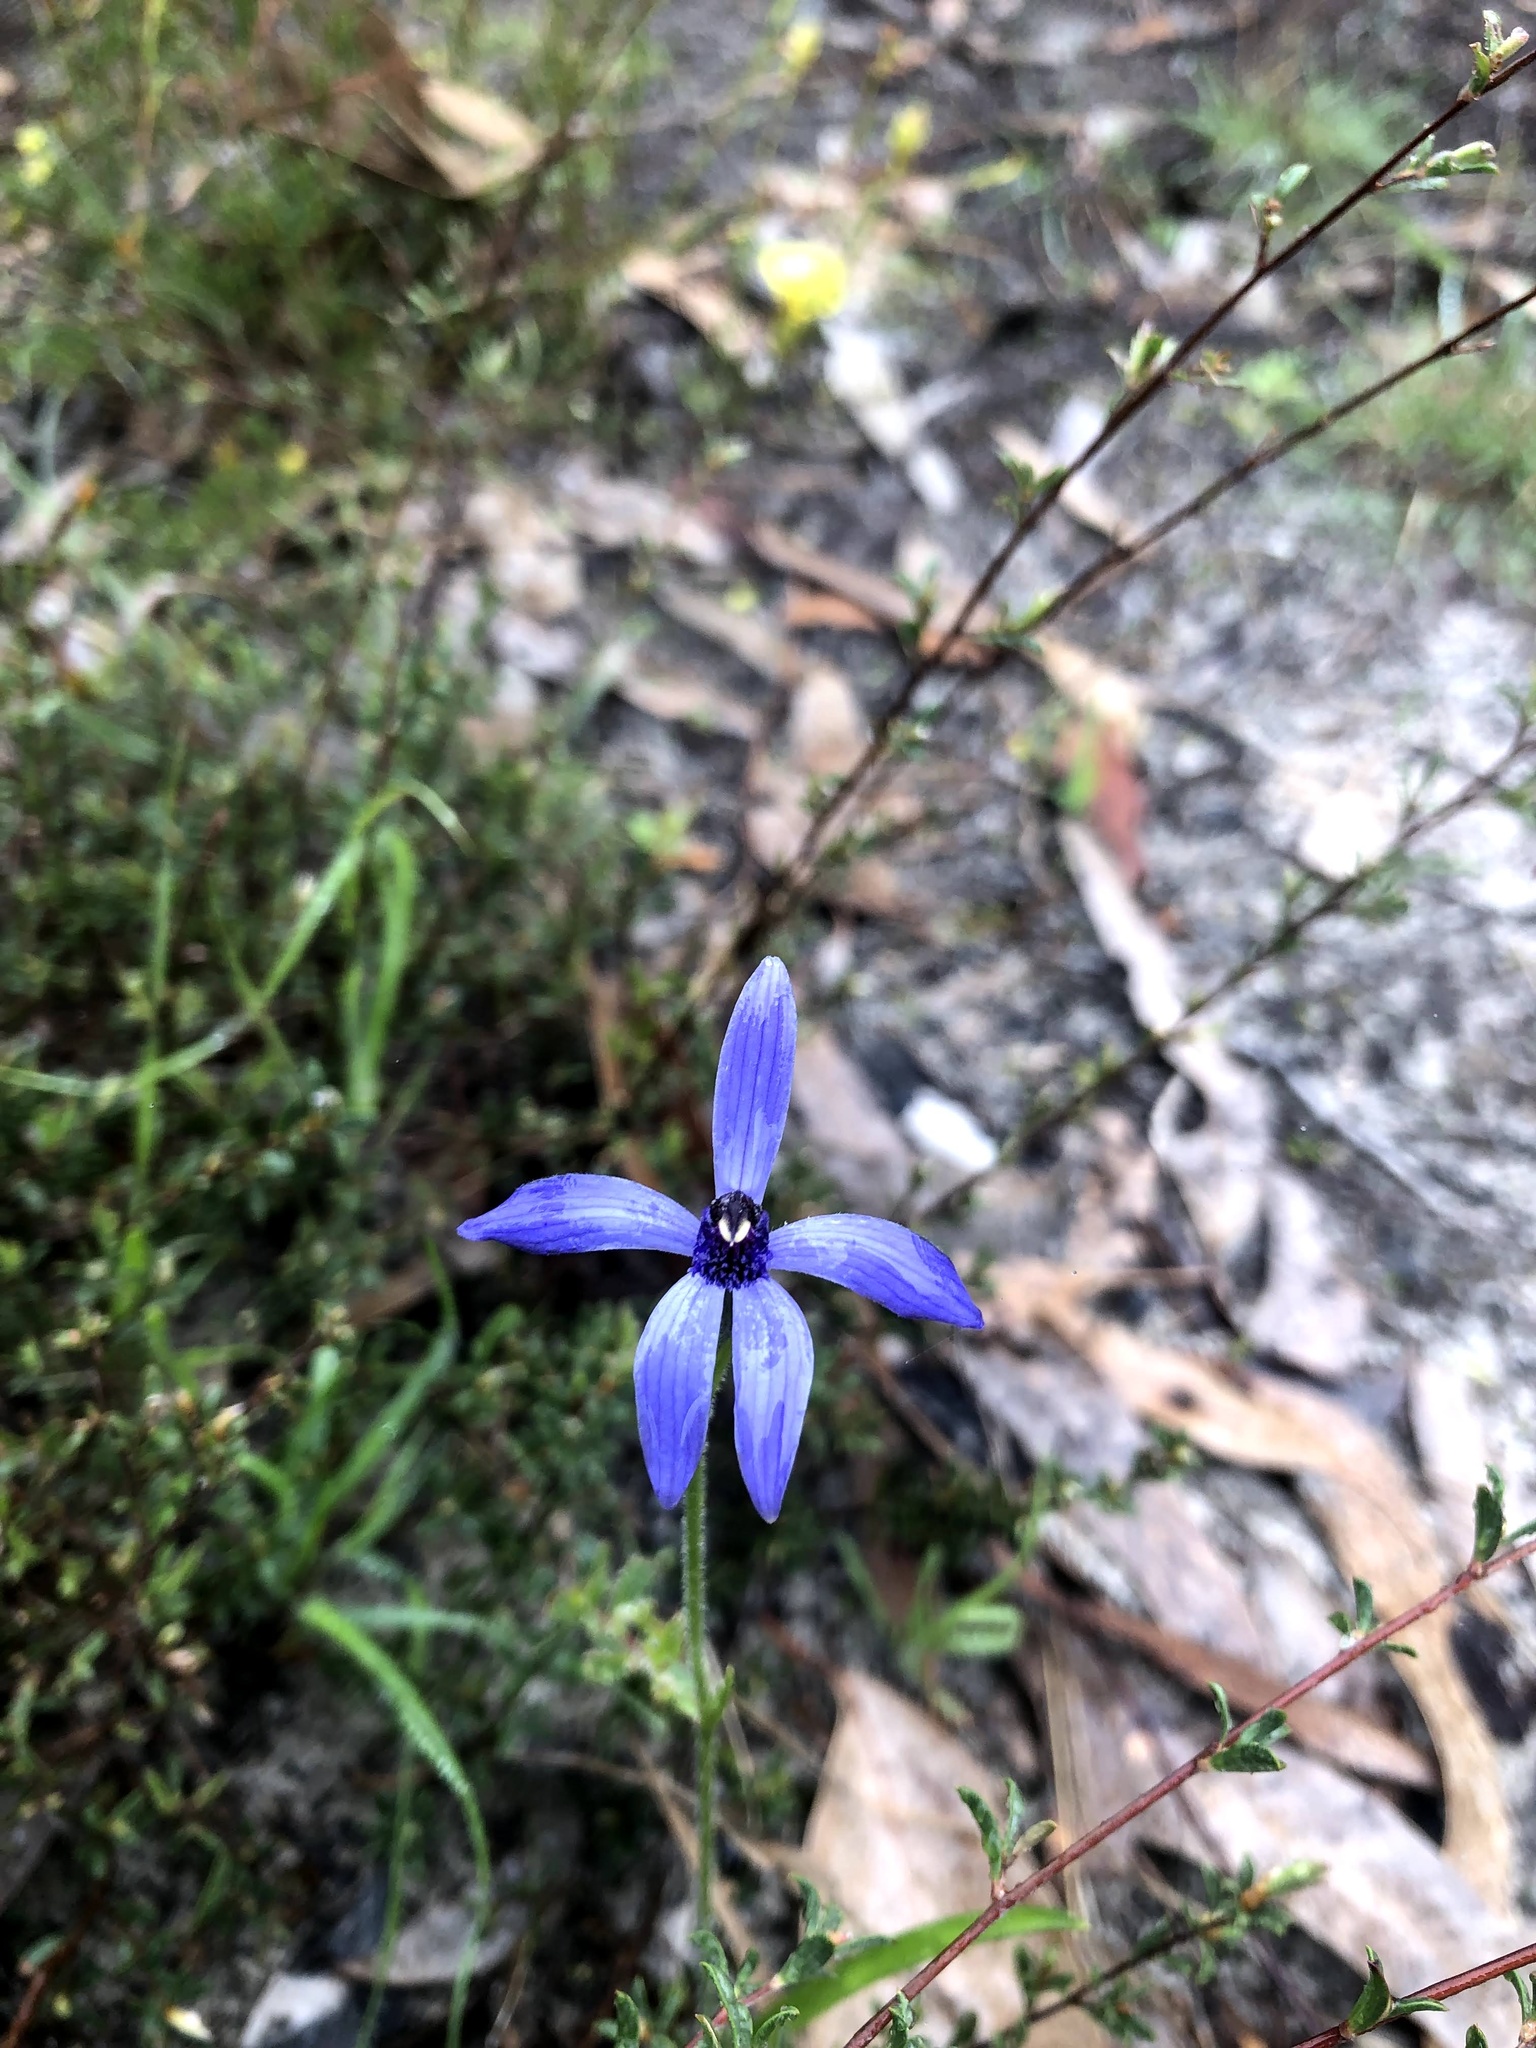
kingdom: Plantae
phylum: Tracheophyta
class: Liliopsida
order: Asparagales
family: Orchidaceae
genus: Pheladenia
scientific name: Pheladenia deformis
